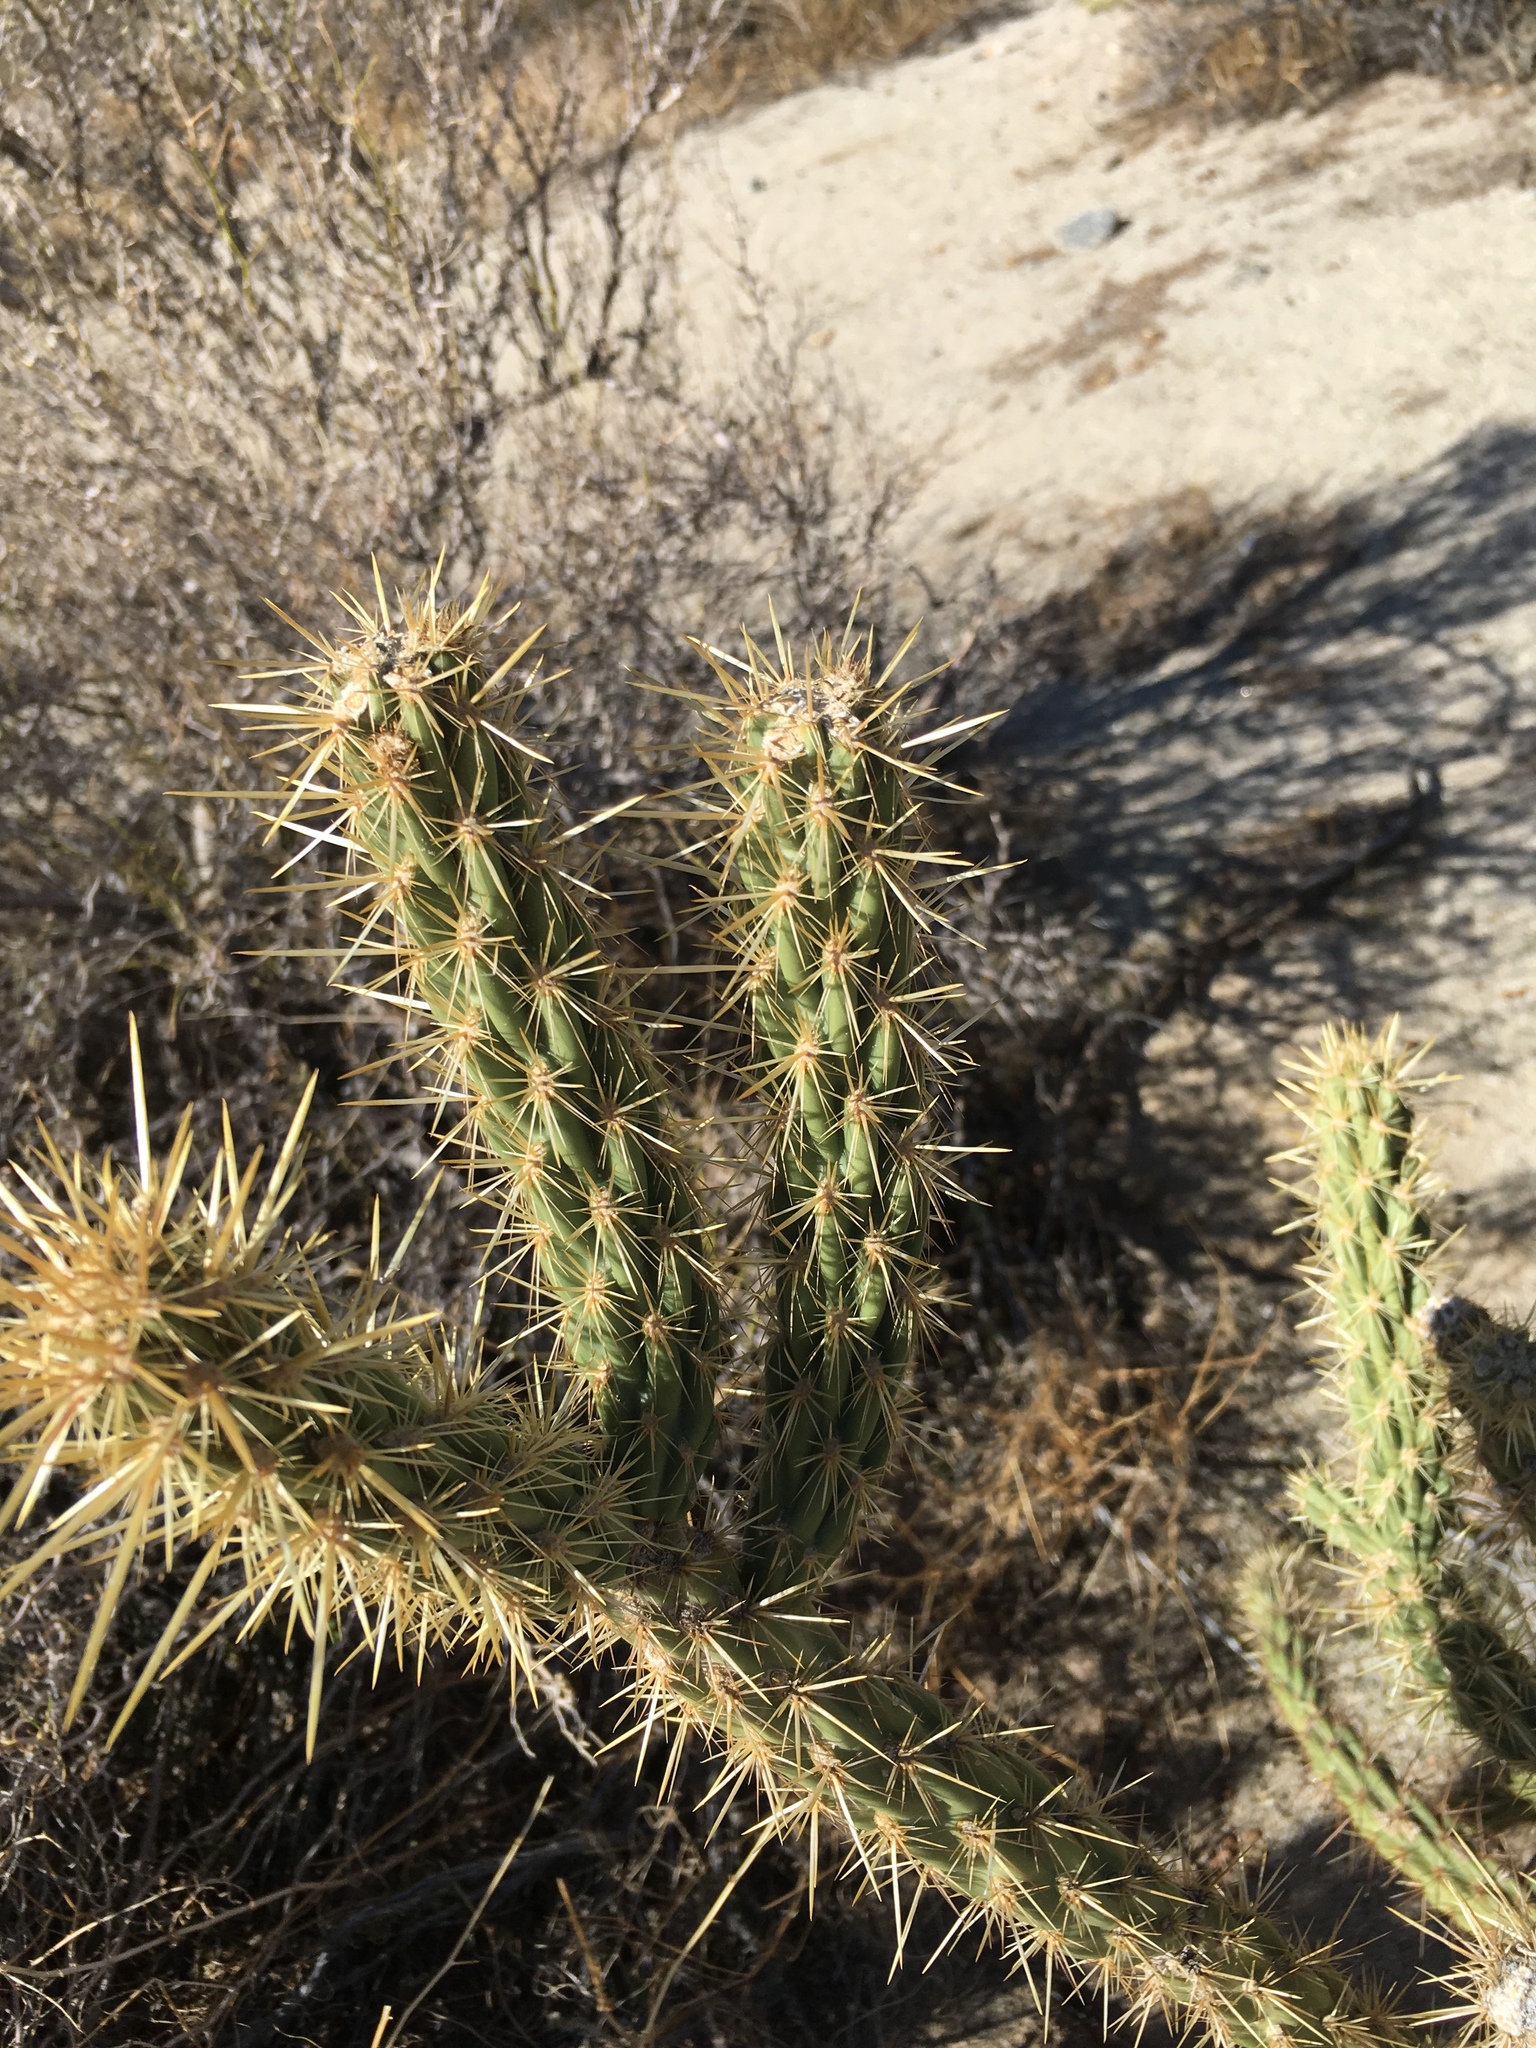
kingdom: Plantae
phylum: Tracheophyta
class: Magnoliopsida
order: Caryophyllales
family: Cactaceae
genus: Cylindropuntia
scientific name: Cylindropuntia ganderi
